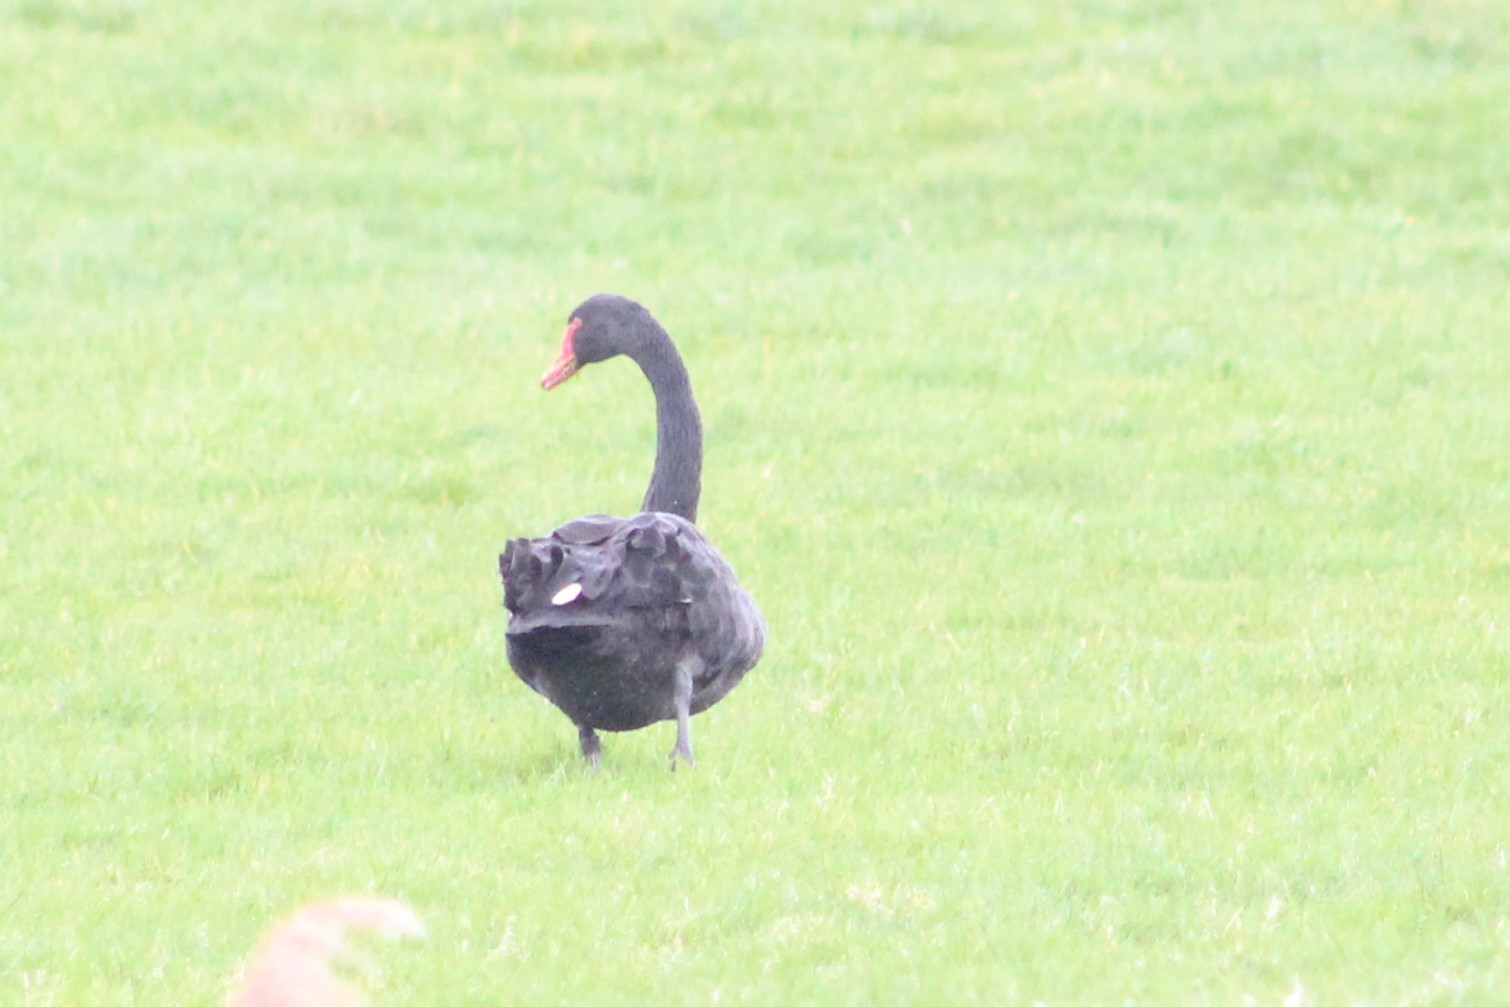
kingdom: Animalia
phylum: Chordata
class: Aves
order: Anseriformes
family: Anatidae
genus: Cygnus
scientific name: Cygnus atratus
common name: Black swan
